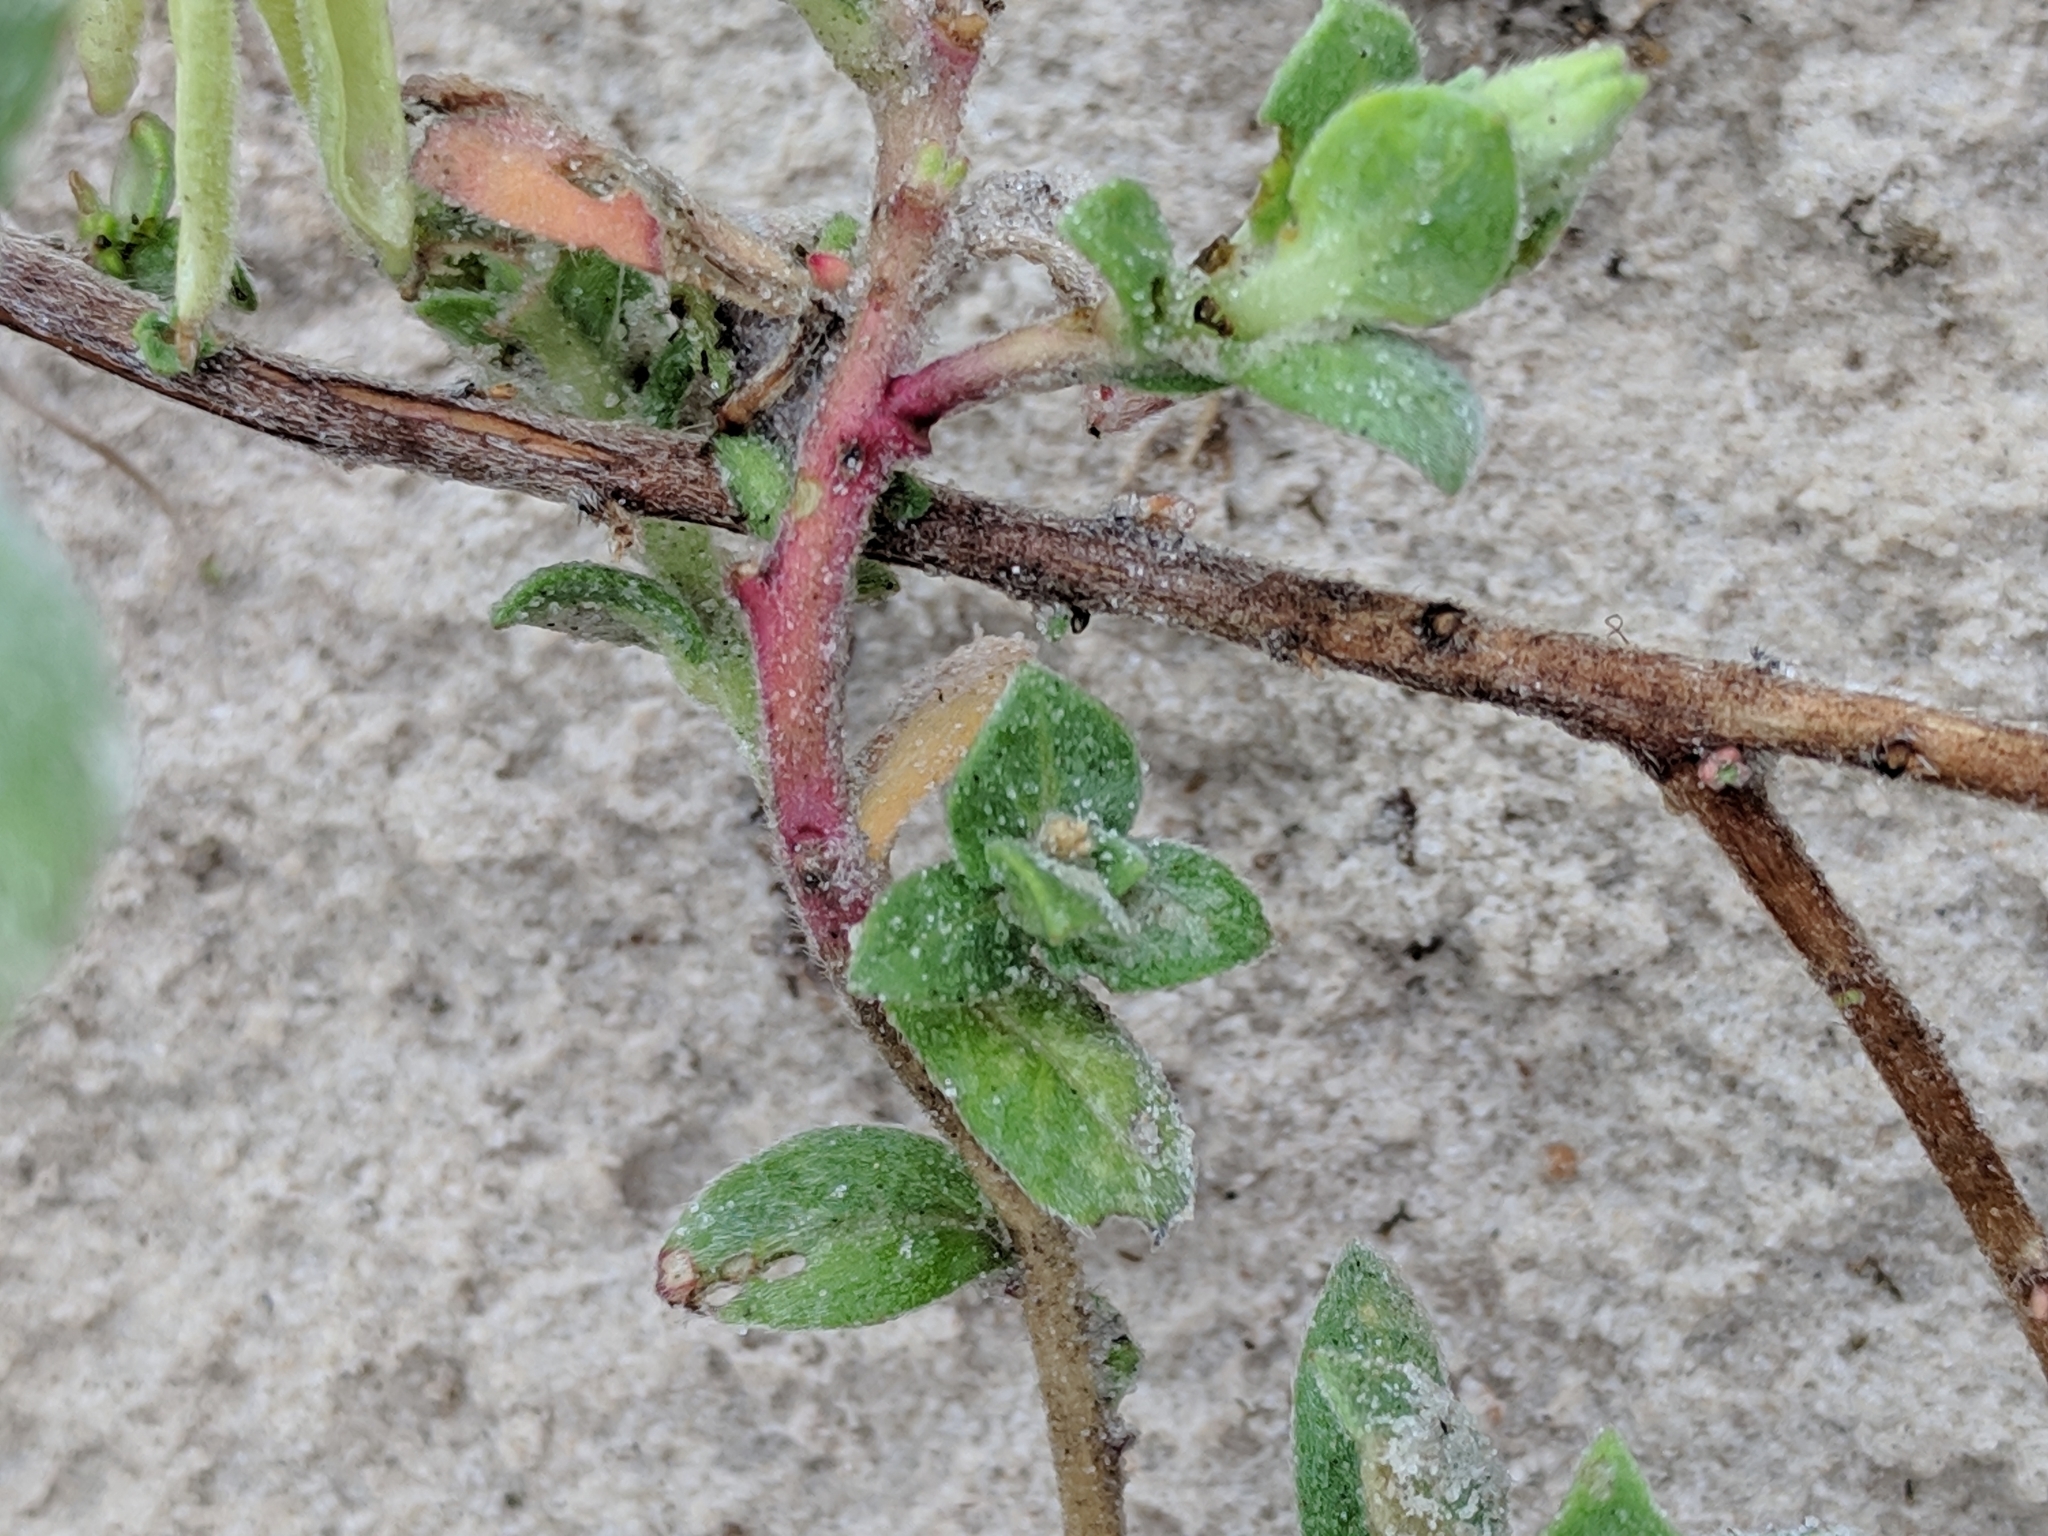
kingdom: Plantae
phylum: Tracheophyta
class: Magnoliopsida
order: Myrtales
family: Onagraceae
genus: Oenothera
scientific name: Oenothera drummondii
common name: Beach evening-primrose
